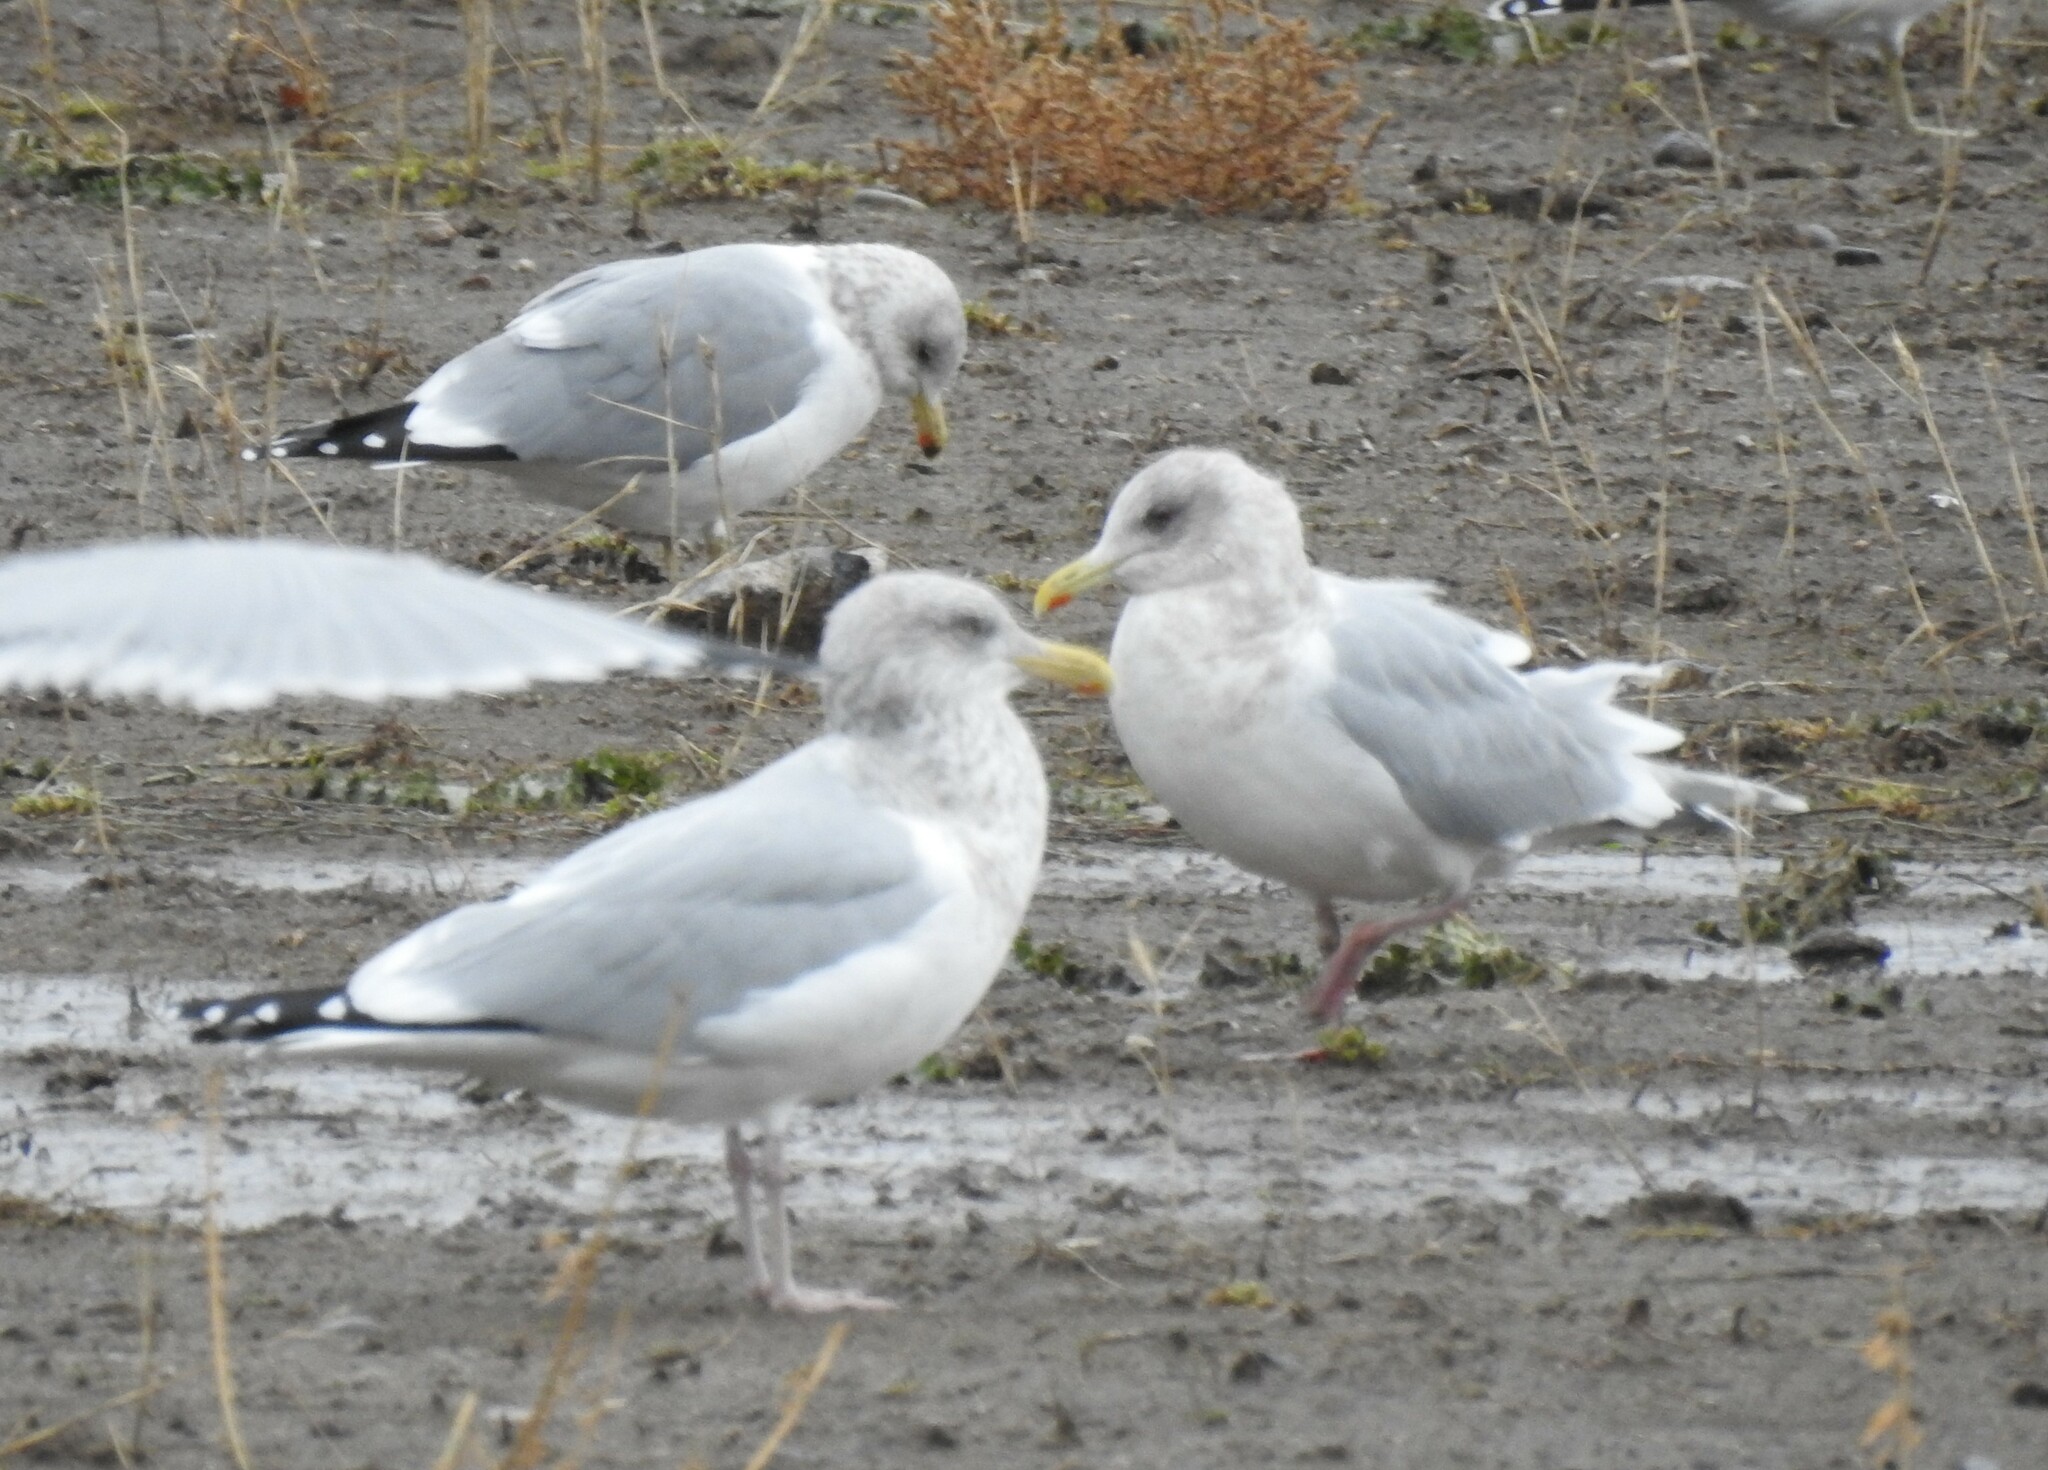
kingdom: Animalia
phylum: Chordata
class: Aves
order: Charadriiformes
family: Laridae
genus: Larus
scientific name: Larus argentatus
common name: Herring gull
